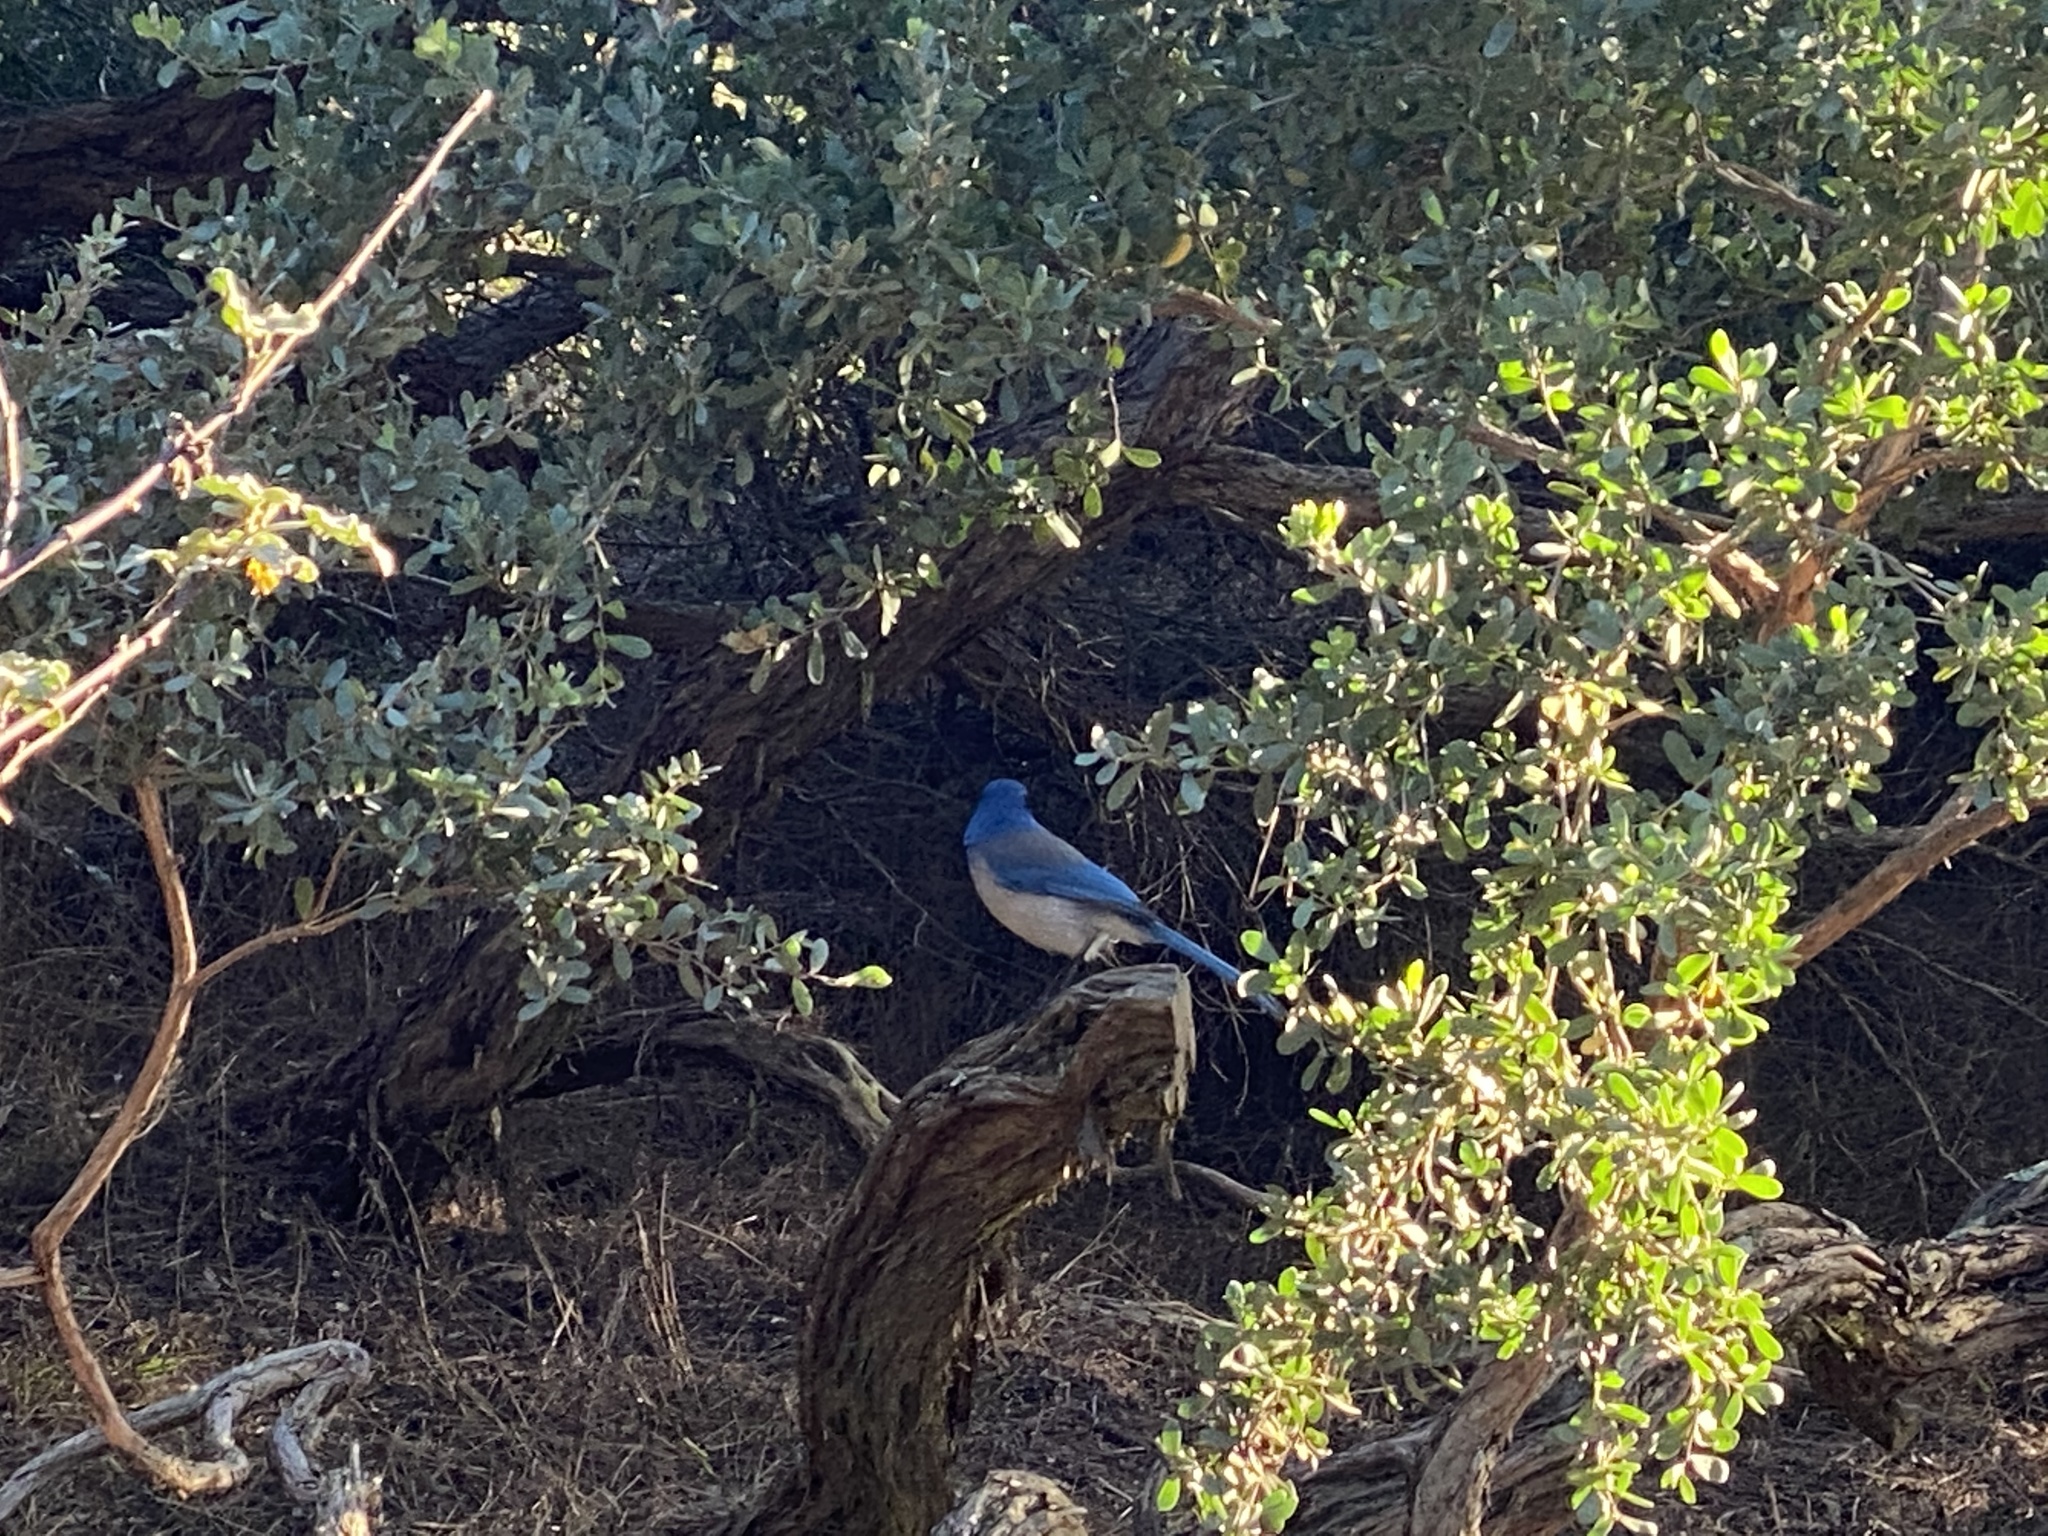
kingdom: Animalia
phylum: Chordata
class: Aves
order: Passeriformes
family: Corvidae
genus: Aphelocoma
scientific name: Aphelocoma californica
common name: California scrub-jay
